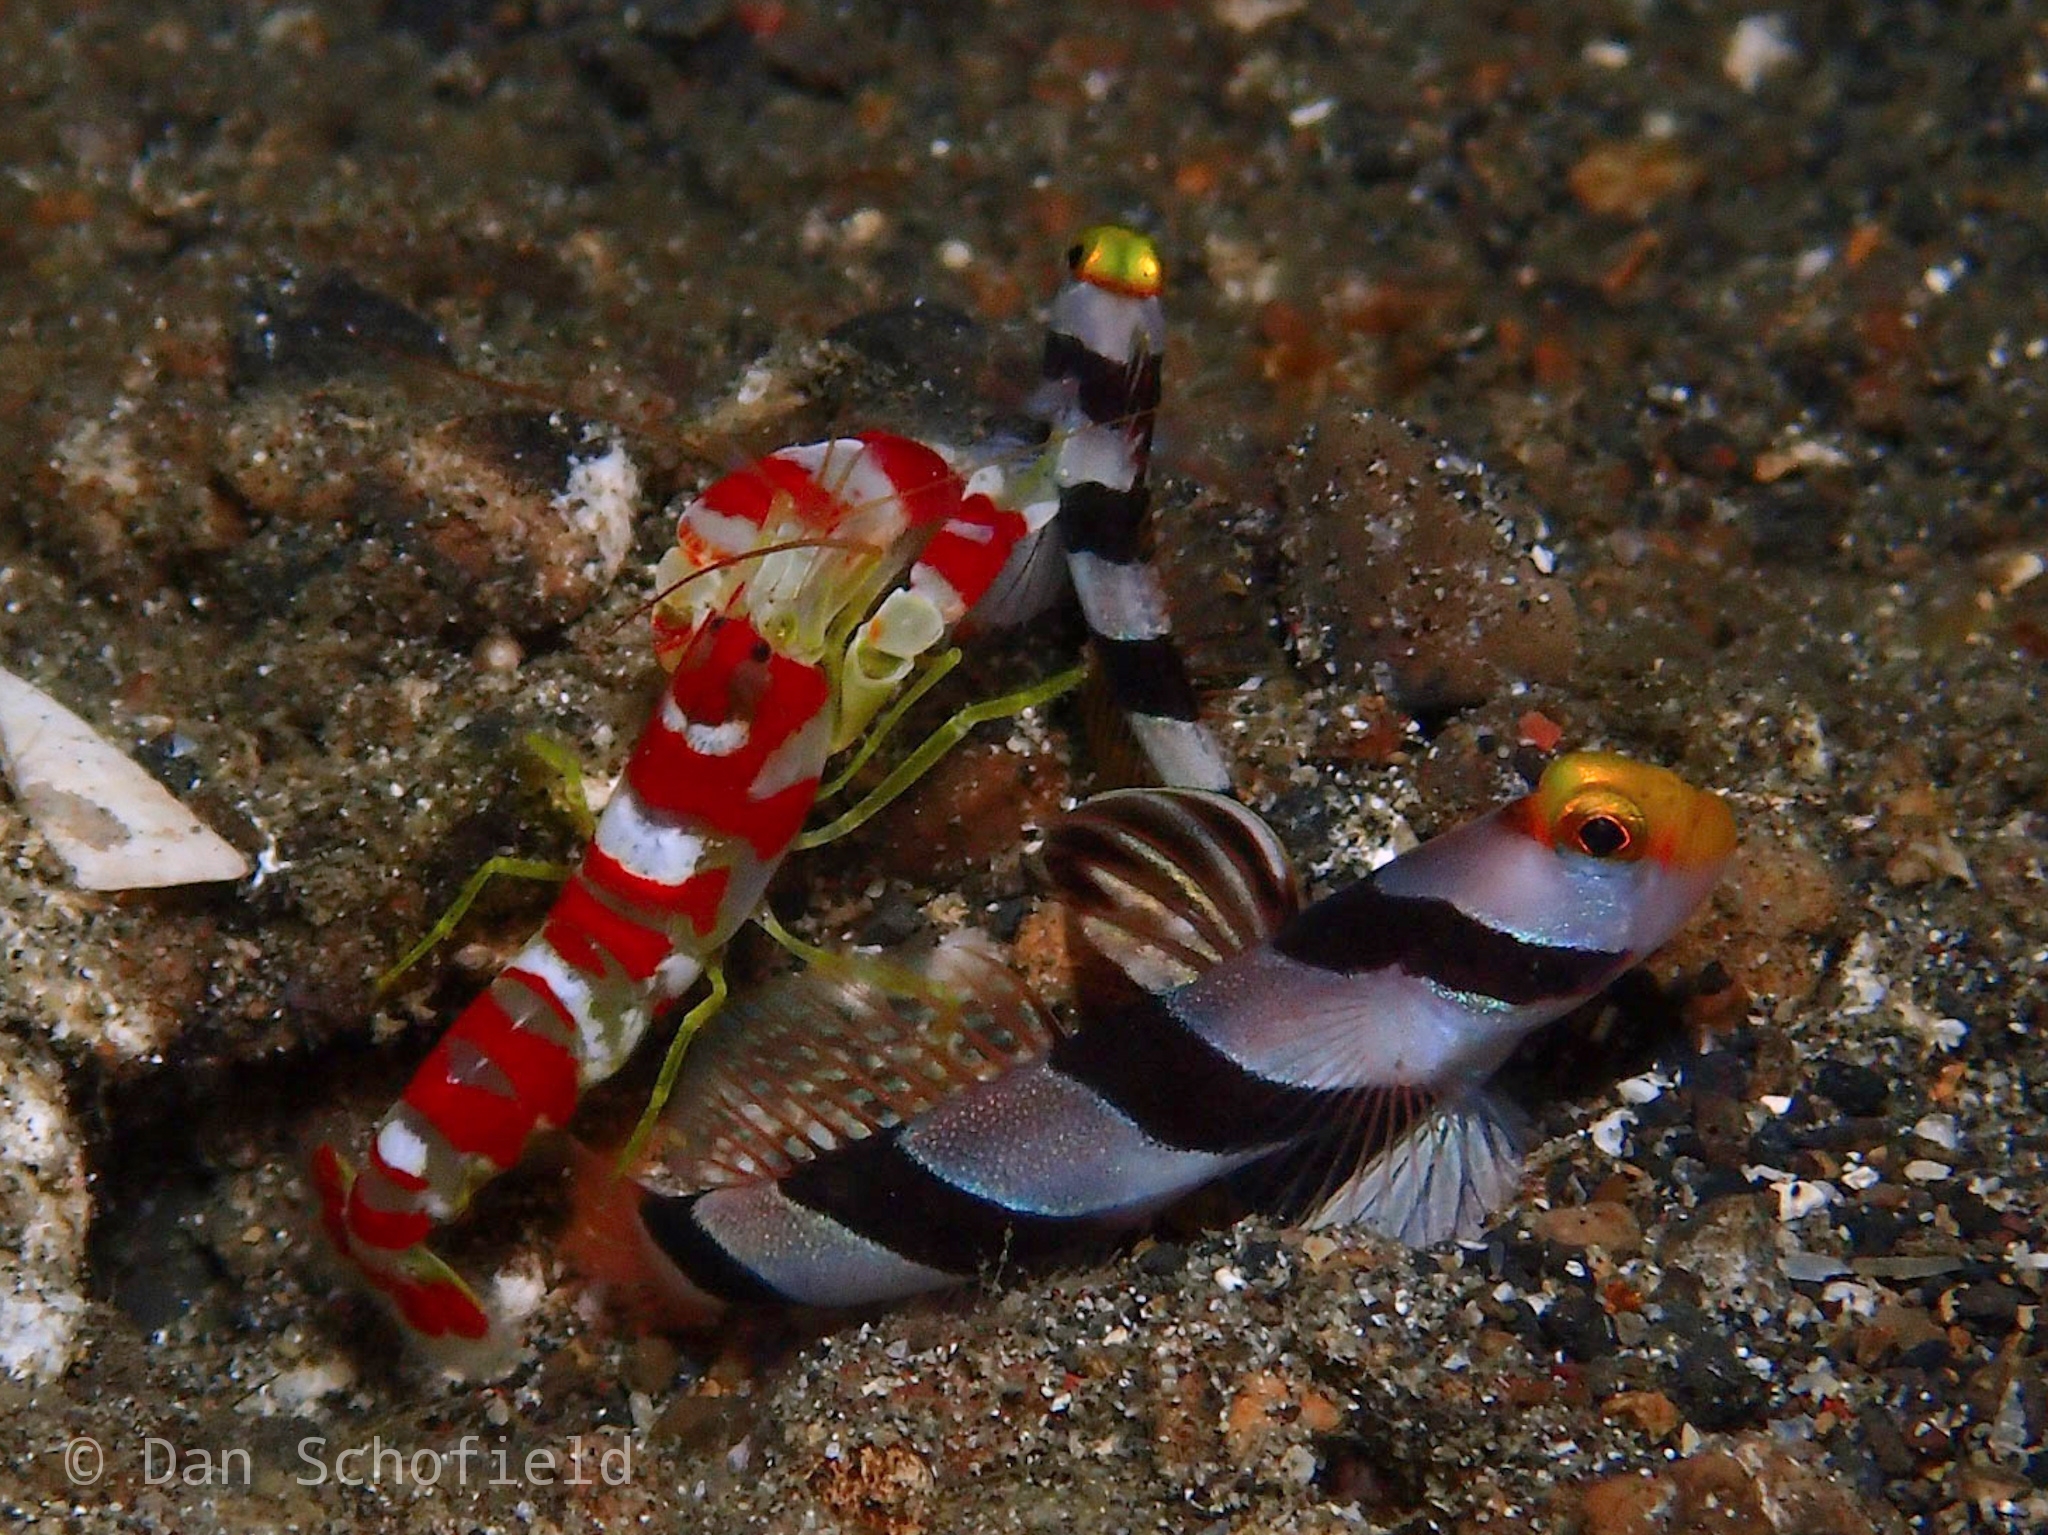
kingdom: Animalia
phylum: Arthropoda
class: Malacostraca
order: Decapoda
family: Alpheidae
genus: Alpheus
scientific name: Alpheus randalli
